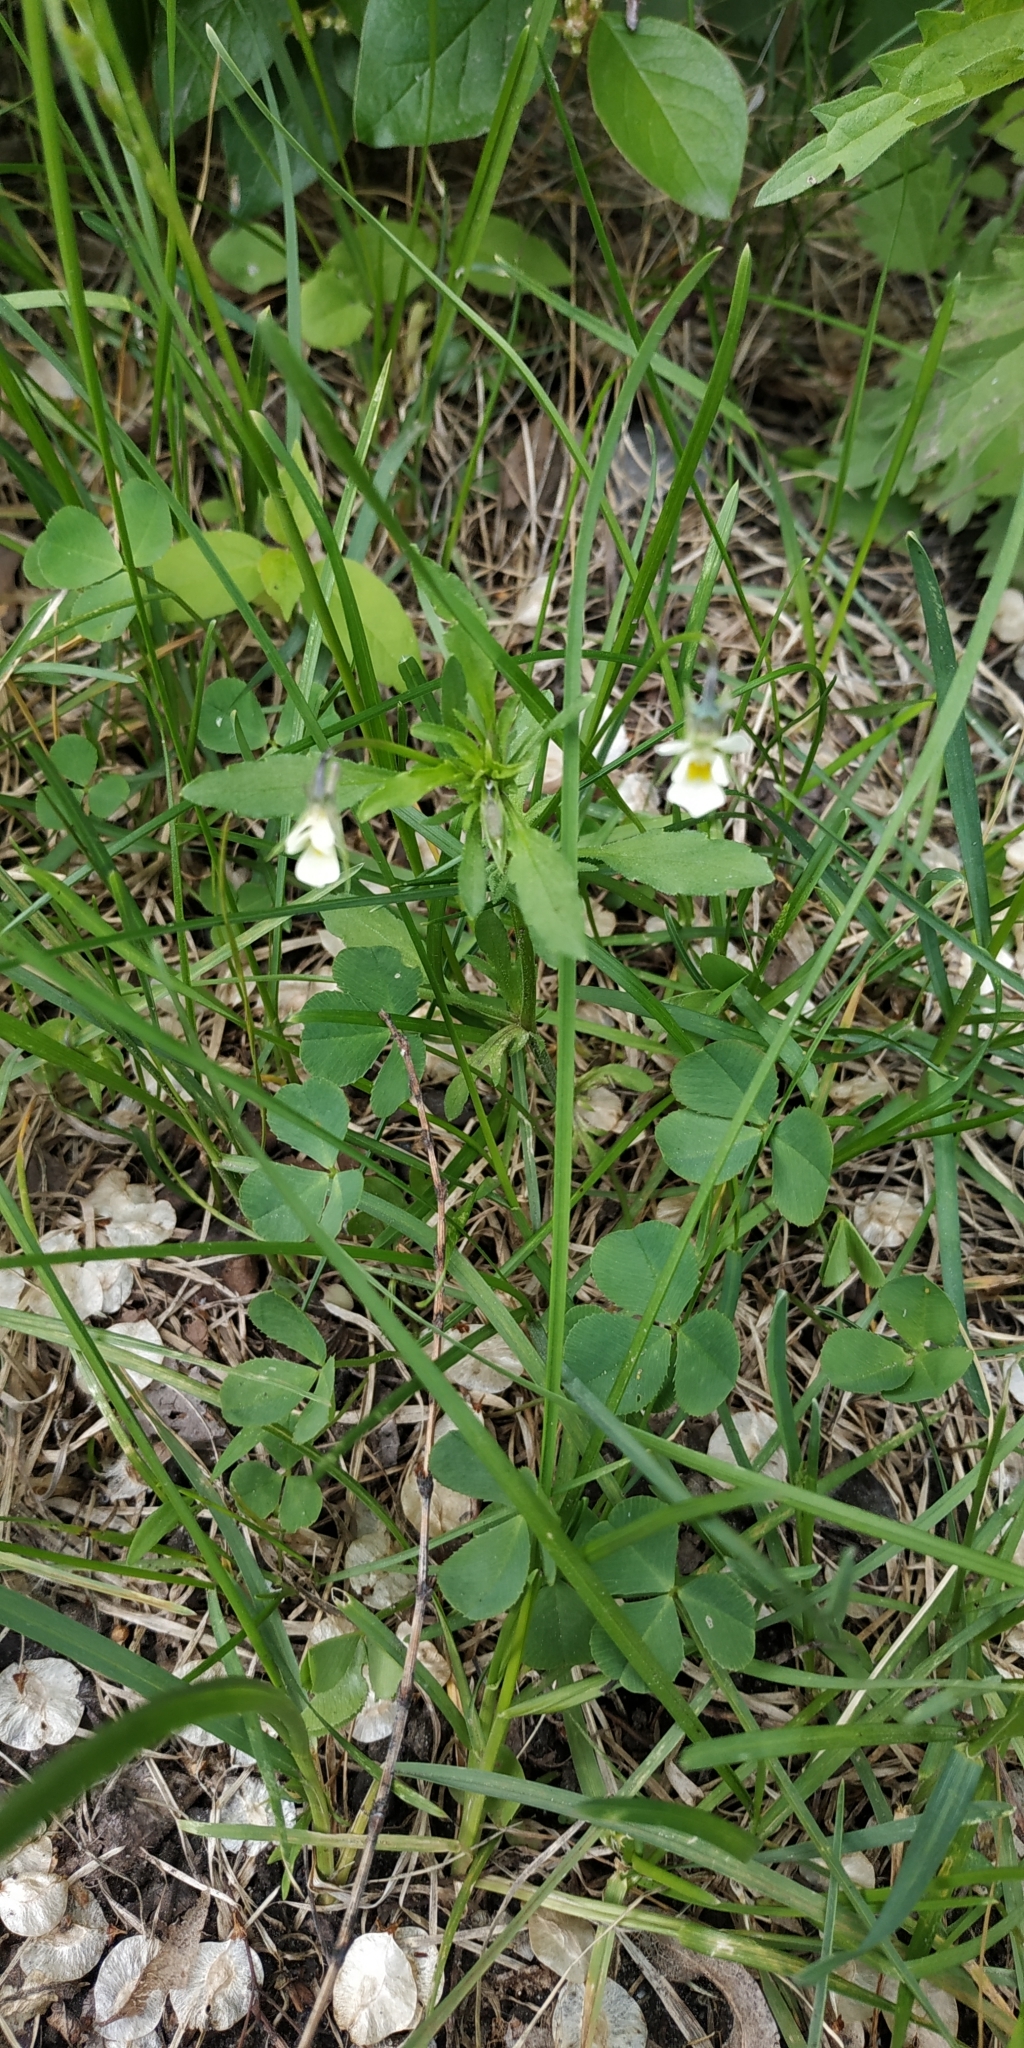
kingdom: Plantae
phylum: Tracheophyta
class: Magnoliopsida
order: Malpighiales
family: Violaceae
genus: Viola
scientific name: Viola arvensis
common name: Field pansy
